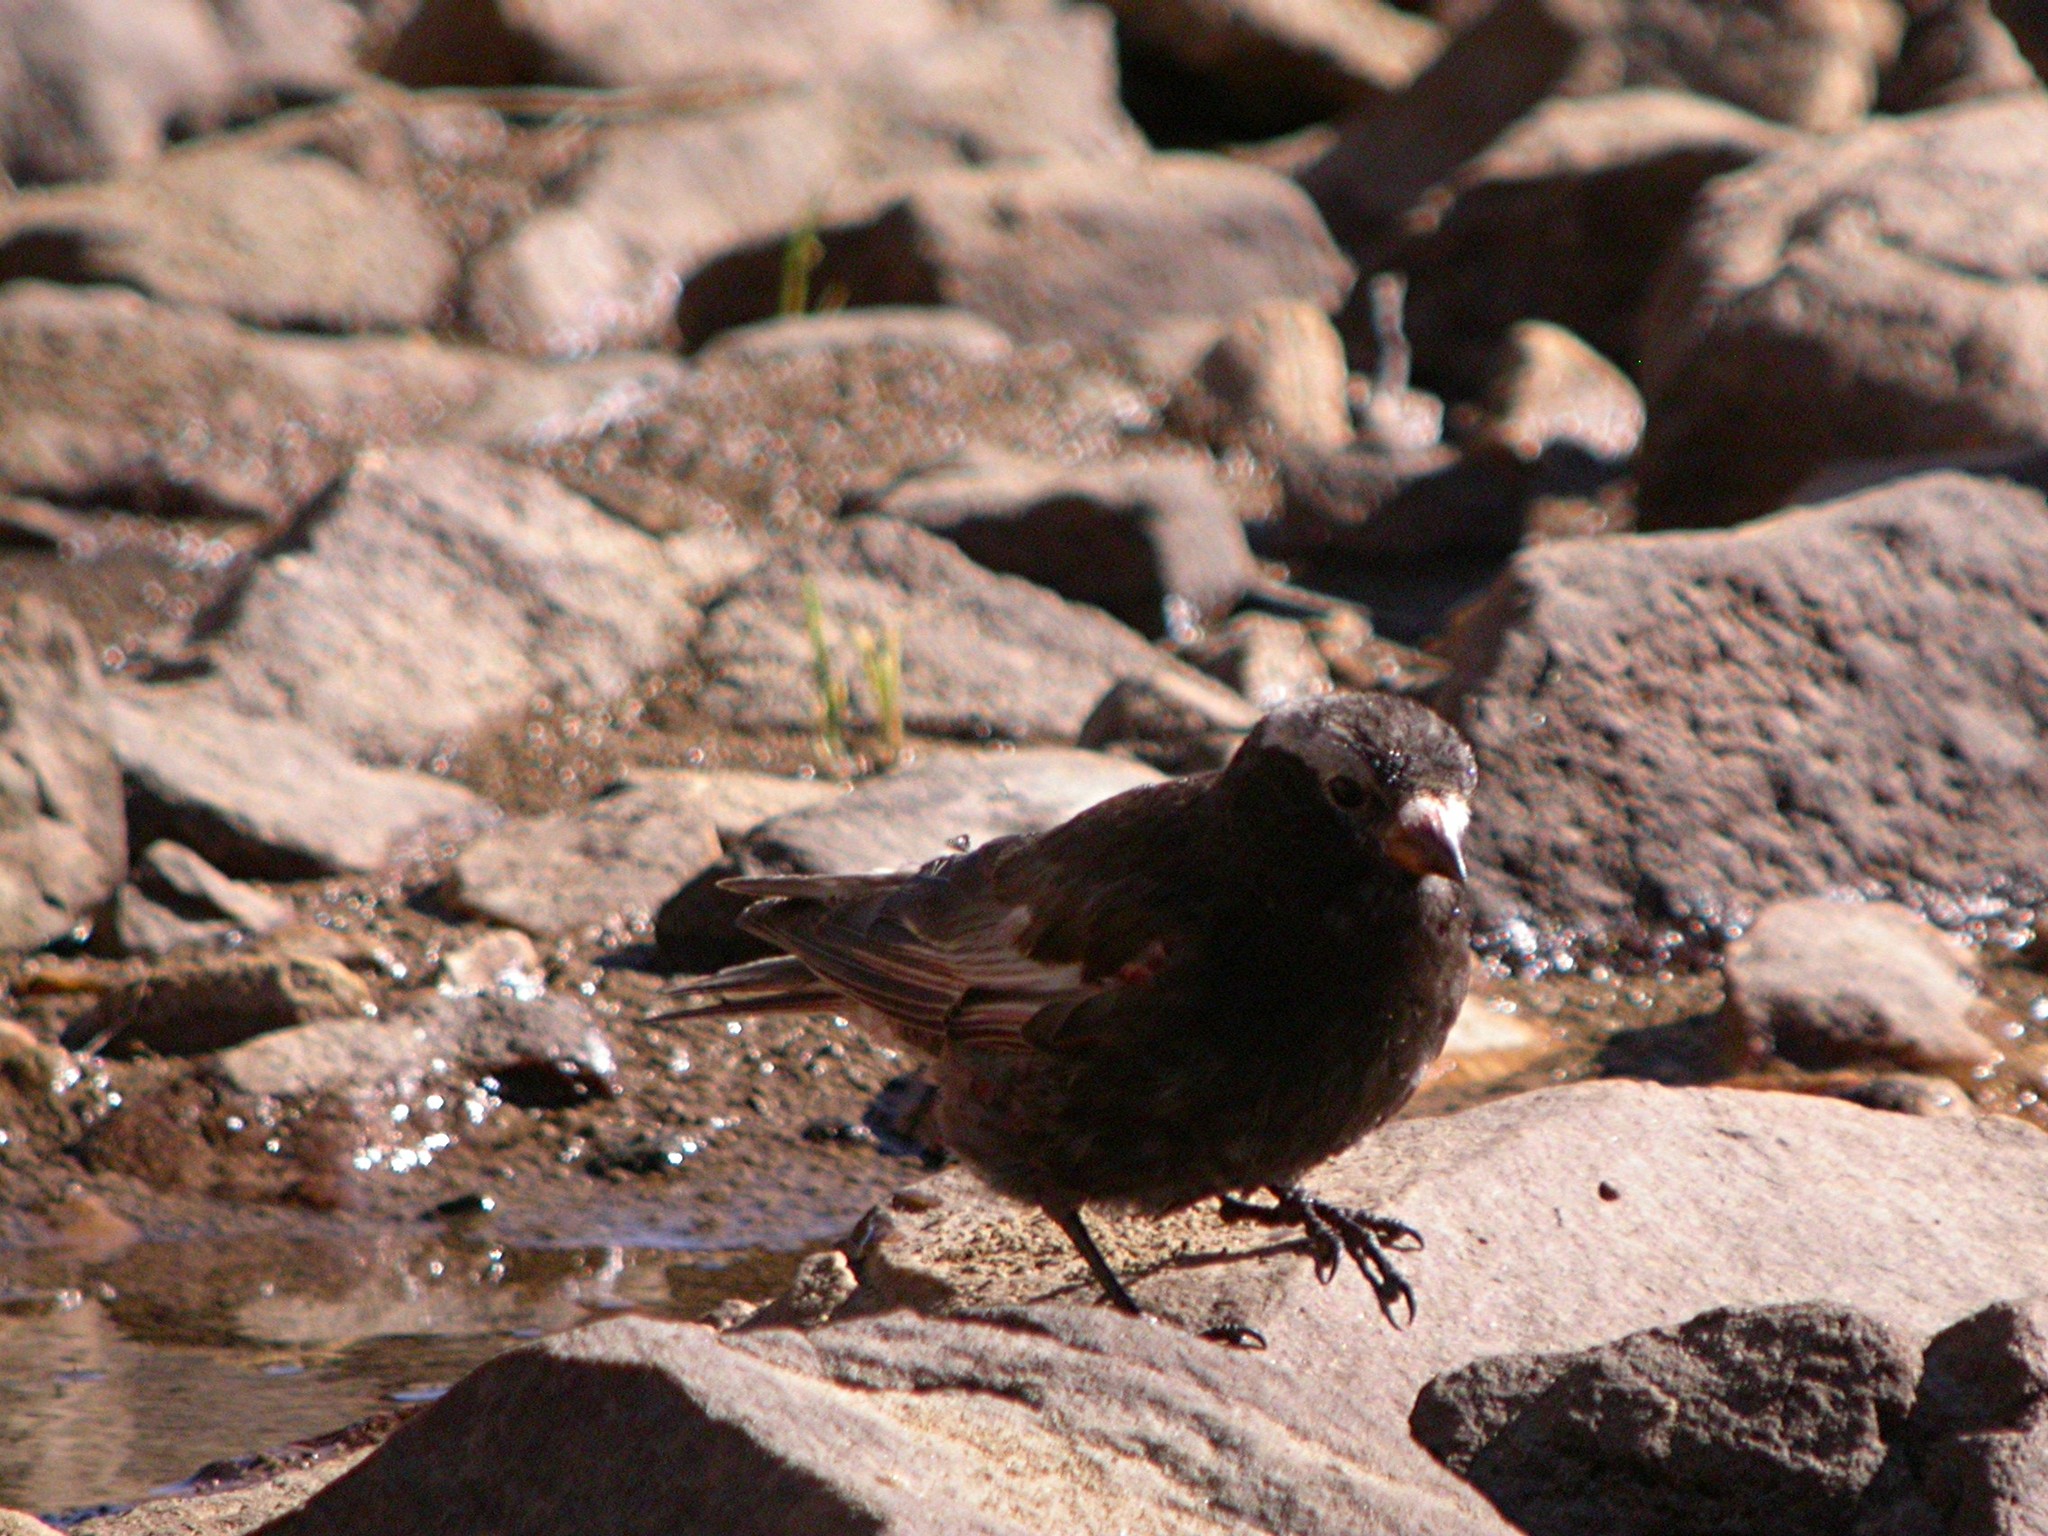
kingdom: Animalia
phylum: Chordata
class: Aves
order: Passeriformes
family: Fringillidae
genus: Leucosticte
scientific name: Leucosticte atrata
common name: Black rosy-finch
